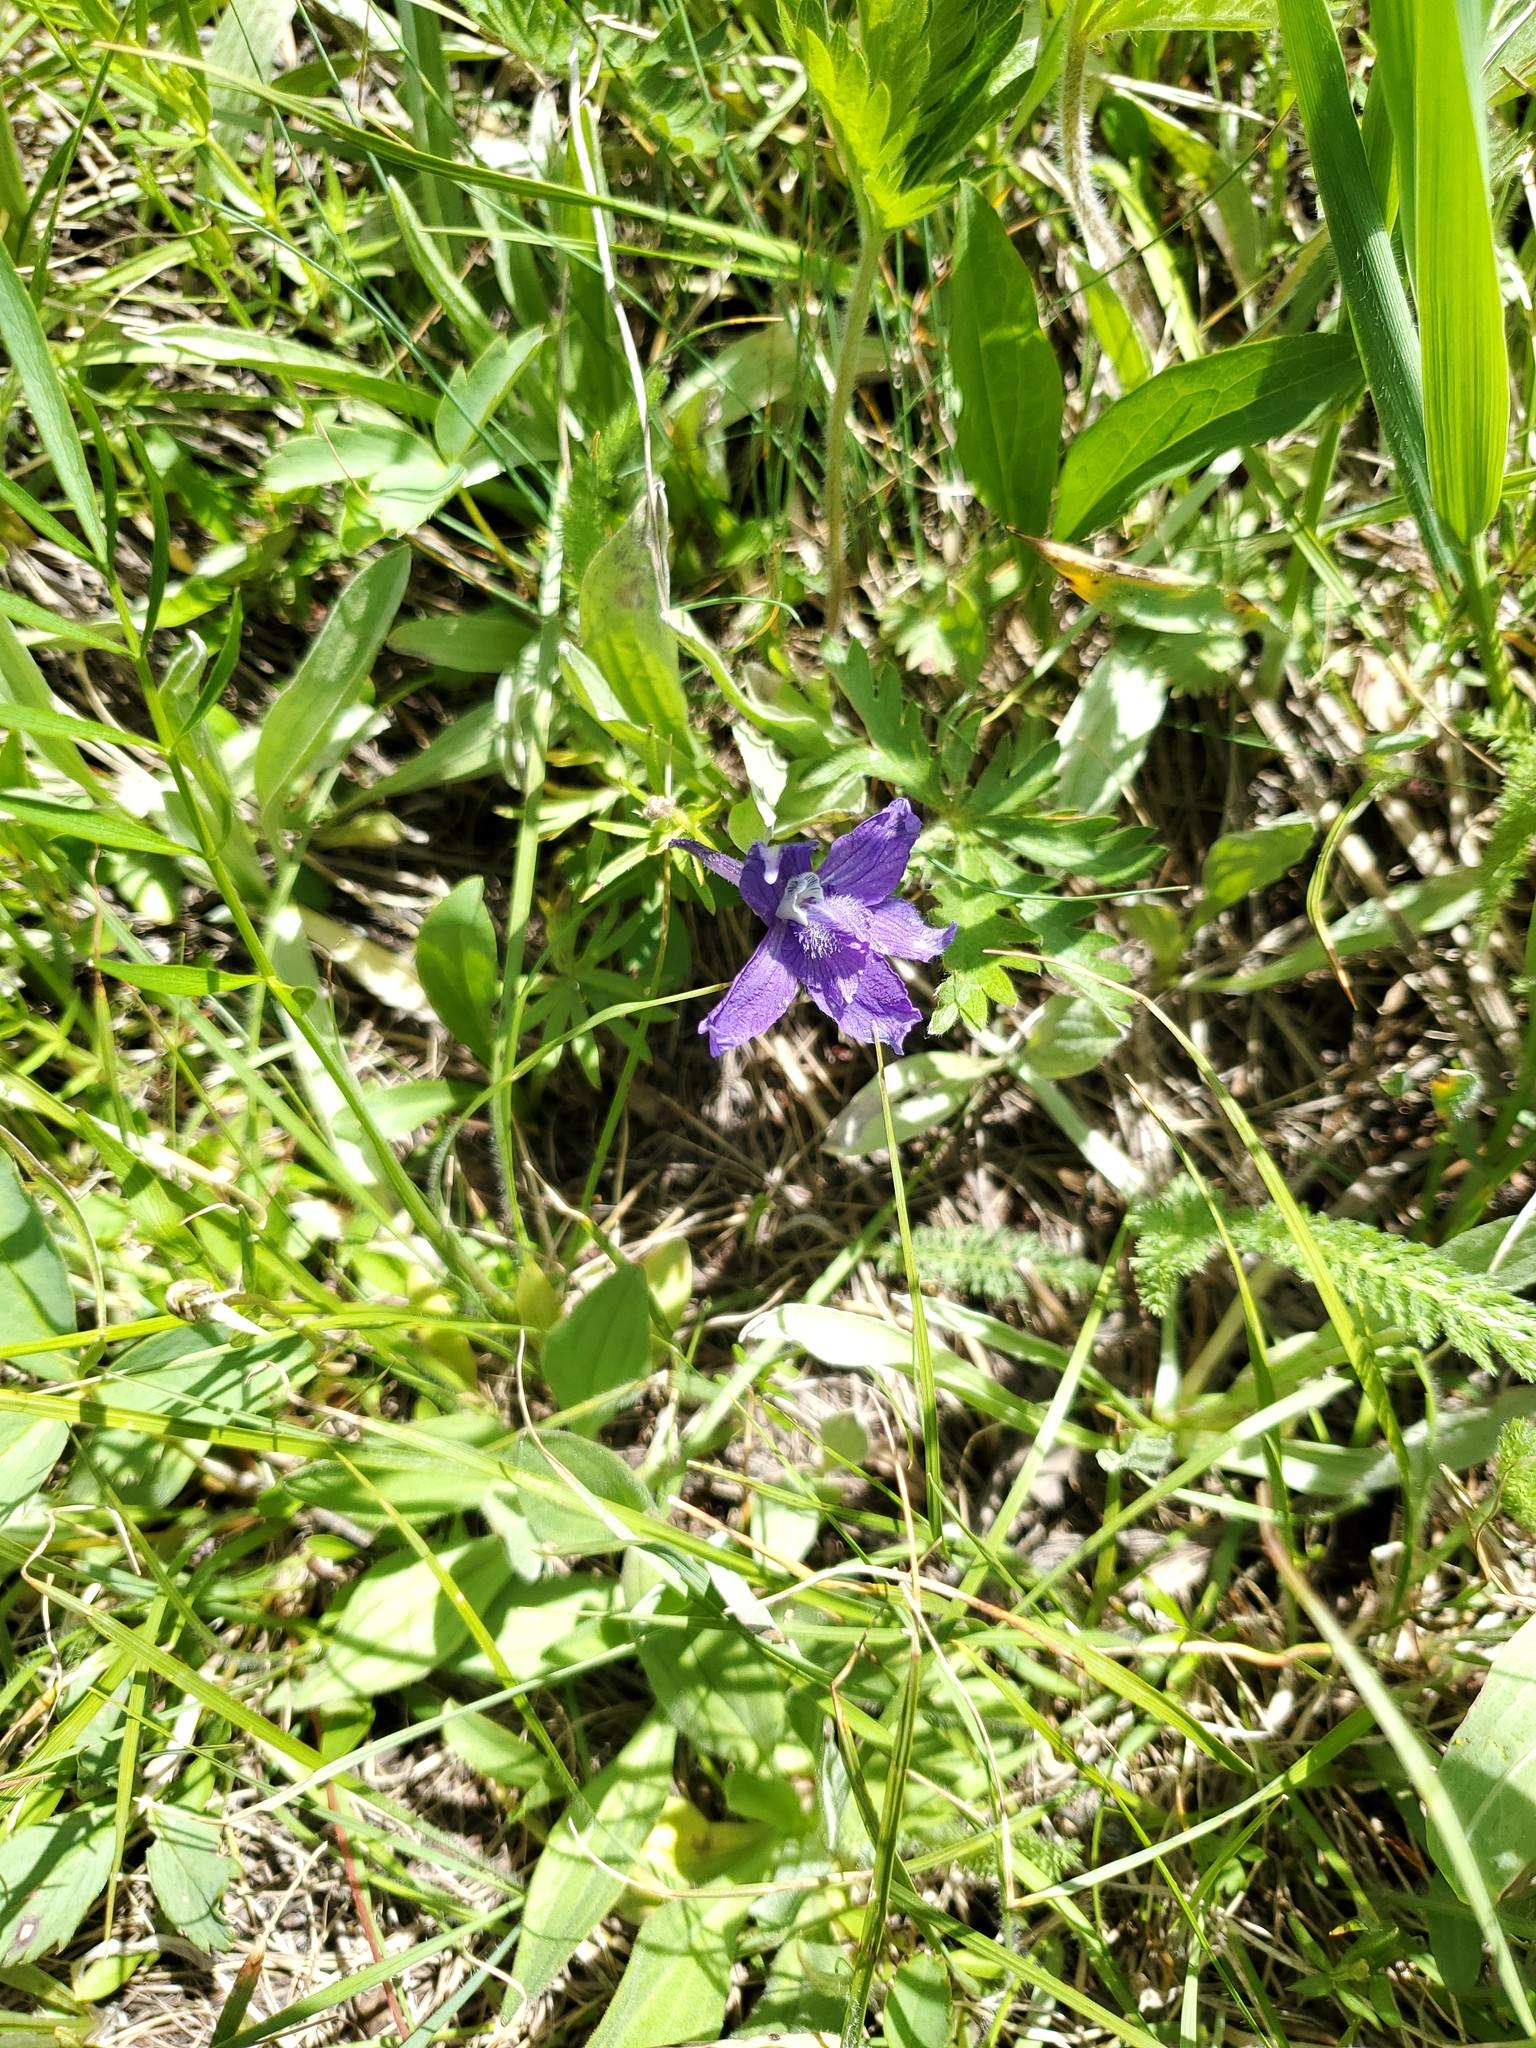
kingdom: Plantae
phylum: Tracheophyta
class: Magnoliopsida
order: Ranunculales
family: Ranunculaceae
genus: Delphinium
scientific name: Delphinium bicolor
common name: Low larkspur
